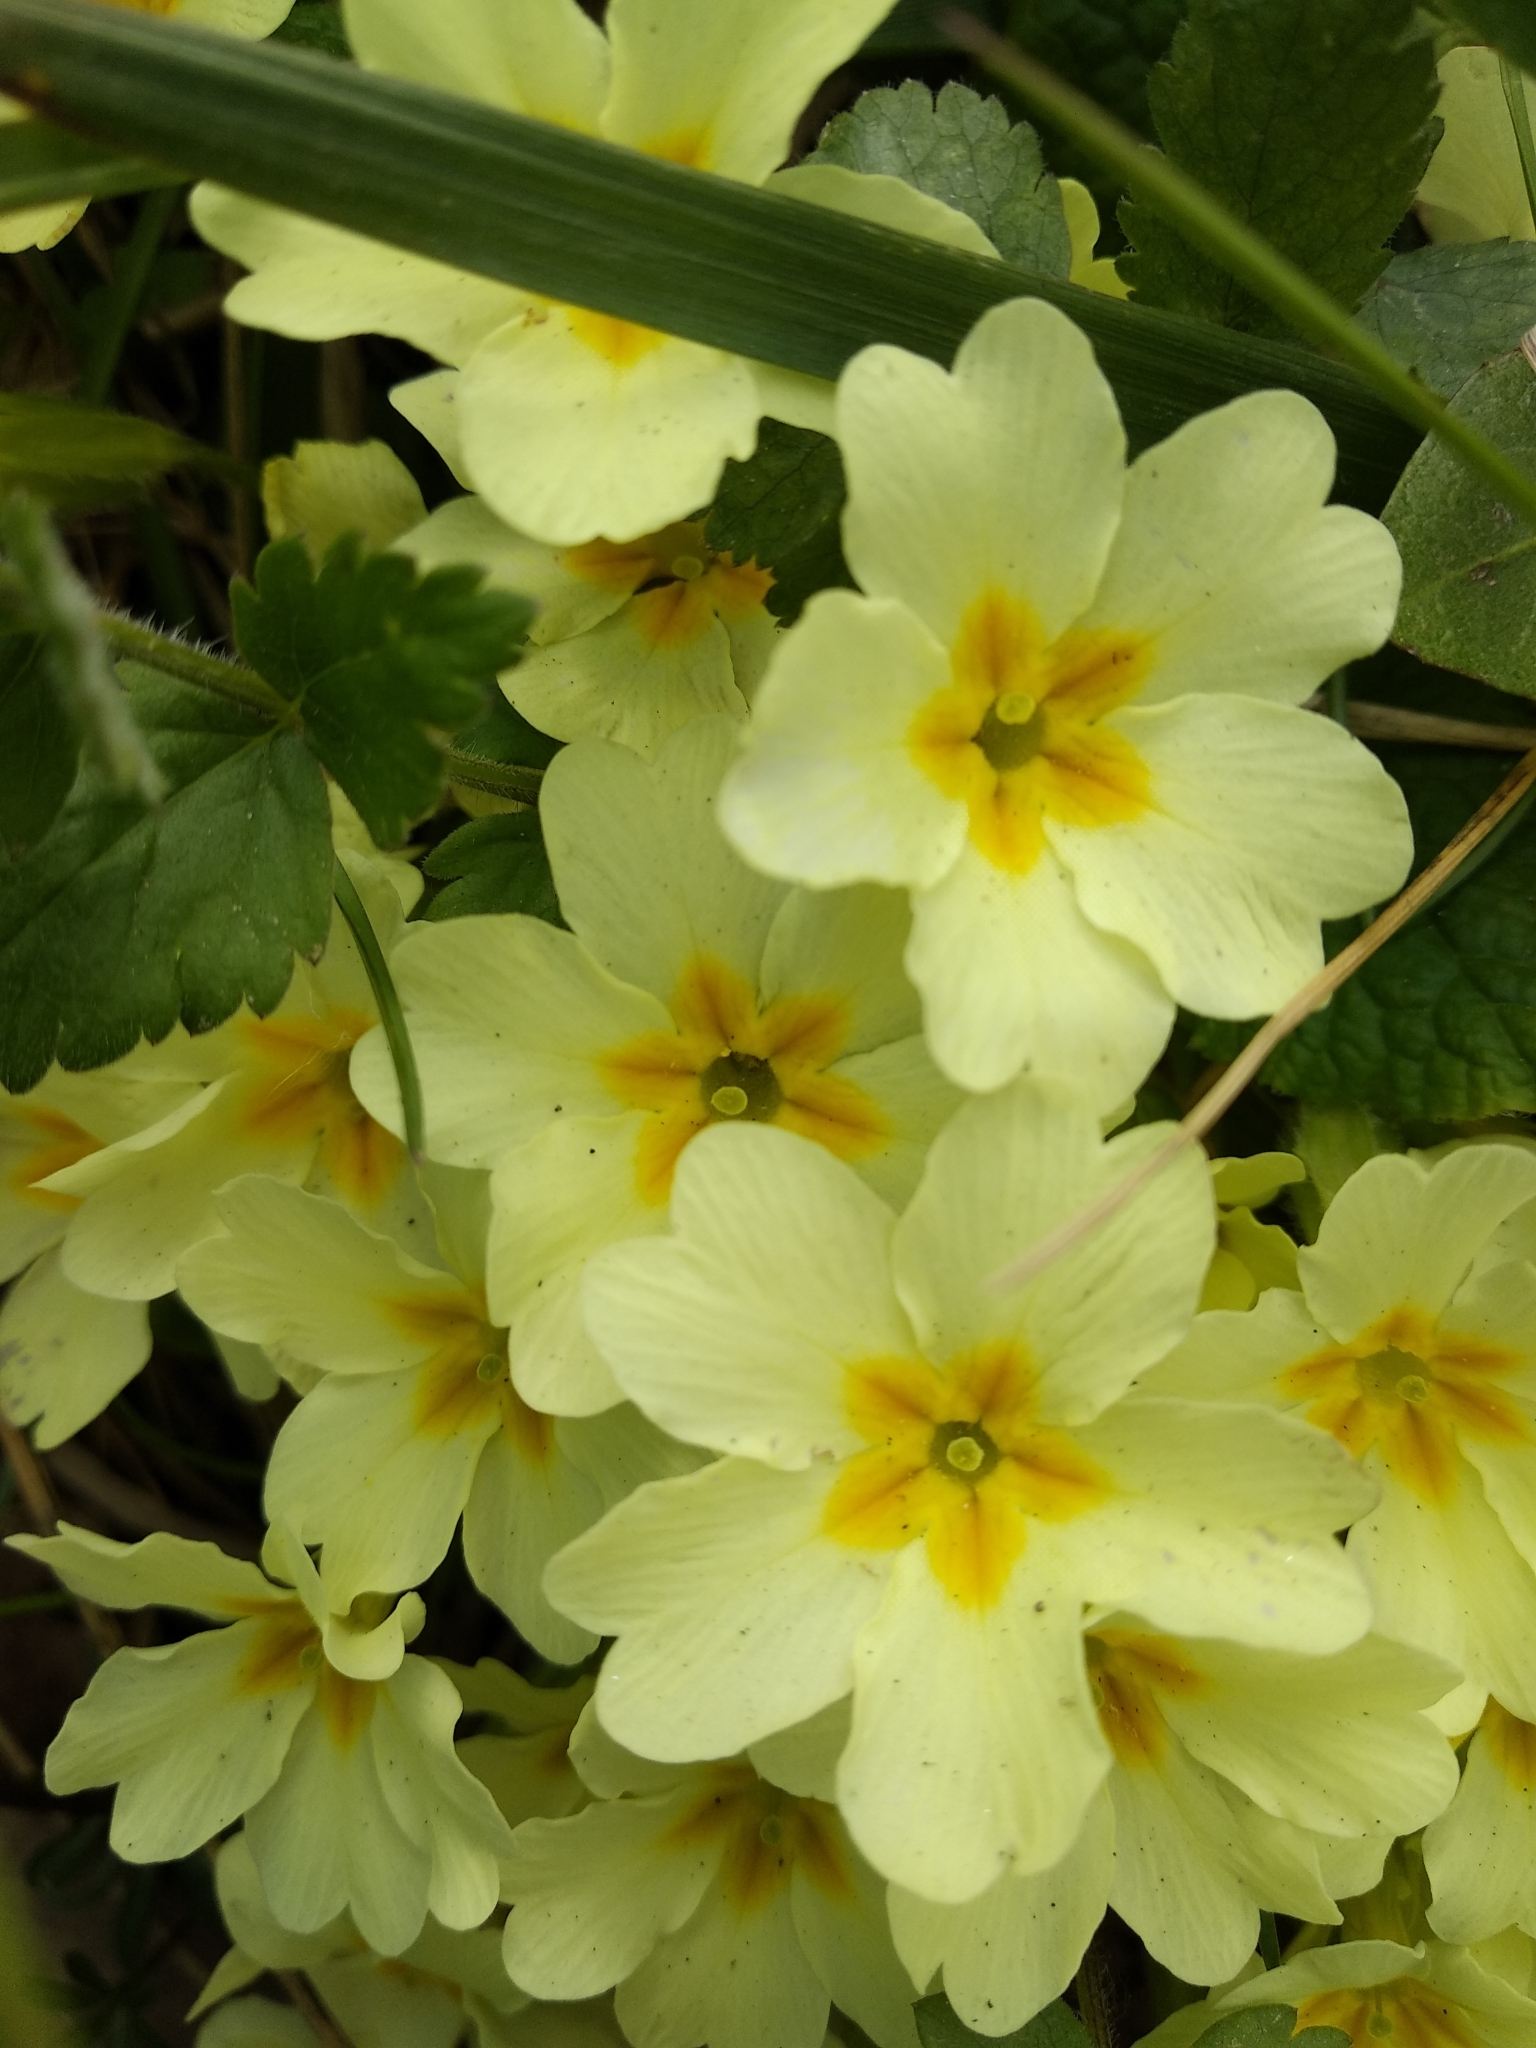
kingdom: Plantae
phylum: Tracheophyta
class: Magnoliopsida
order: Ericales
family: Primulaceae
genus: Primula
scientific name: Primula vulgaris
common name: Primrose
